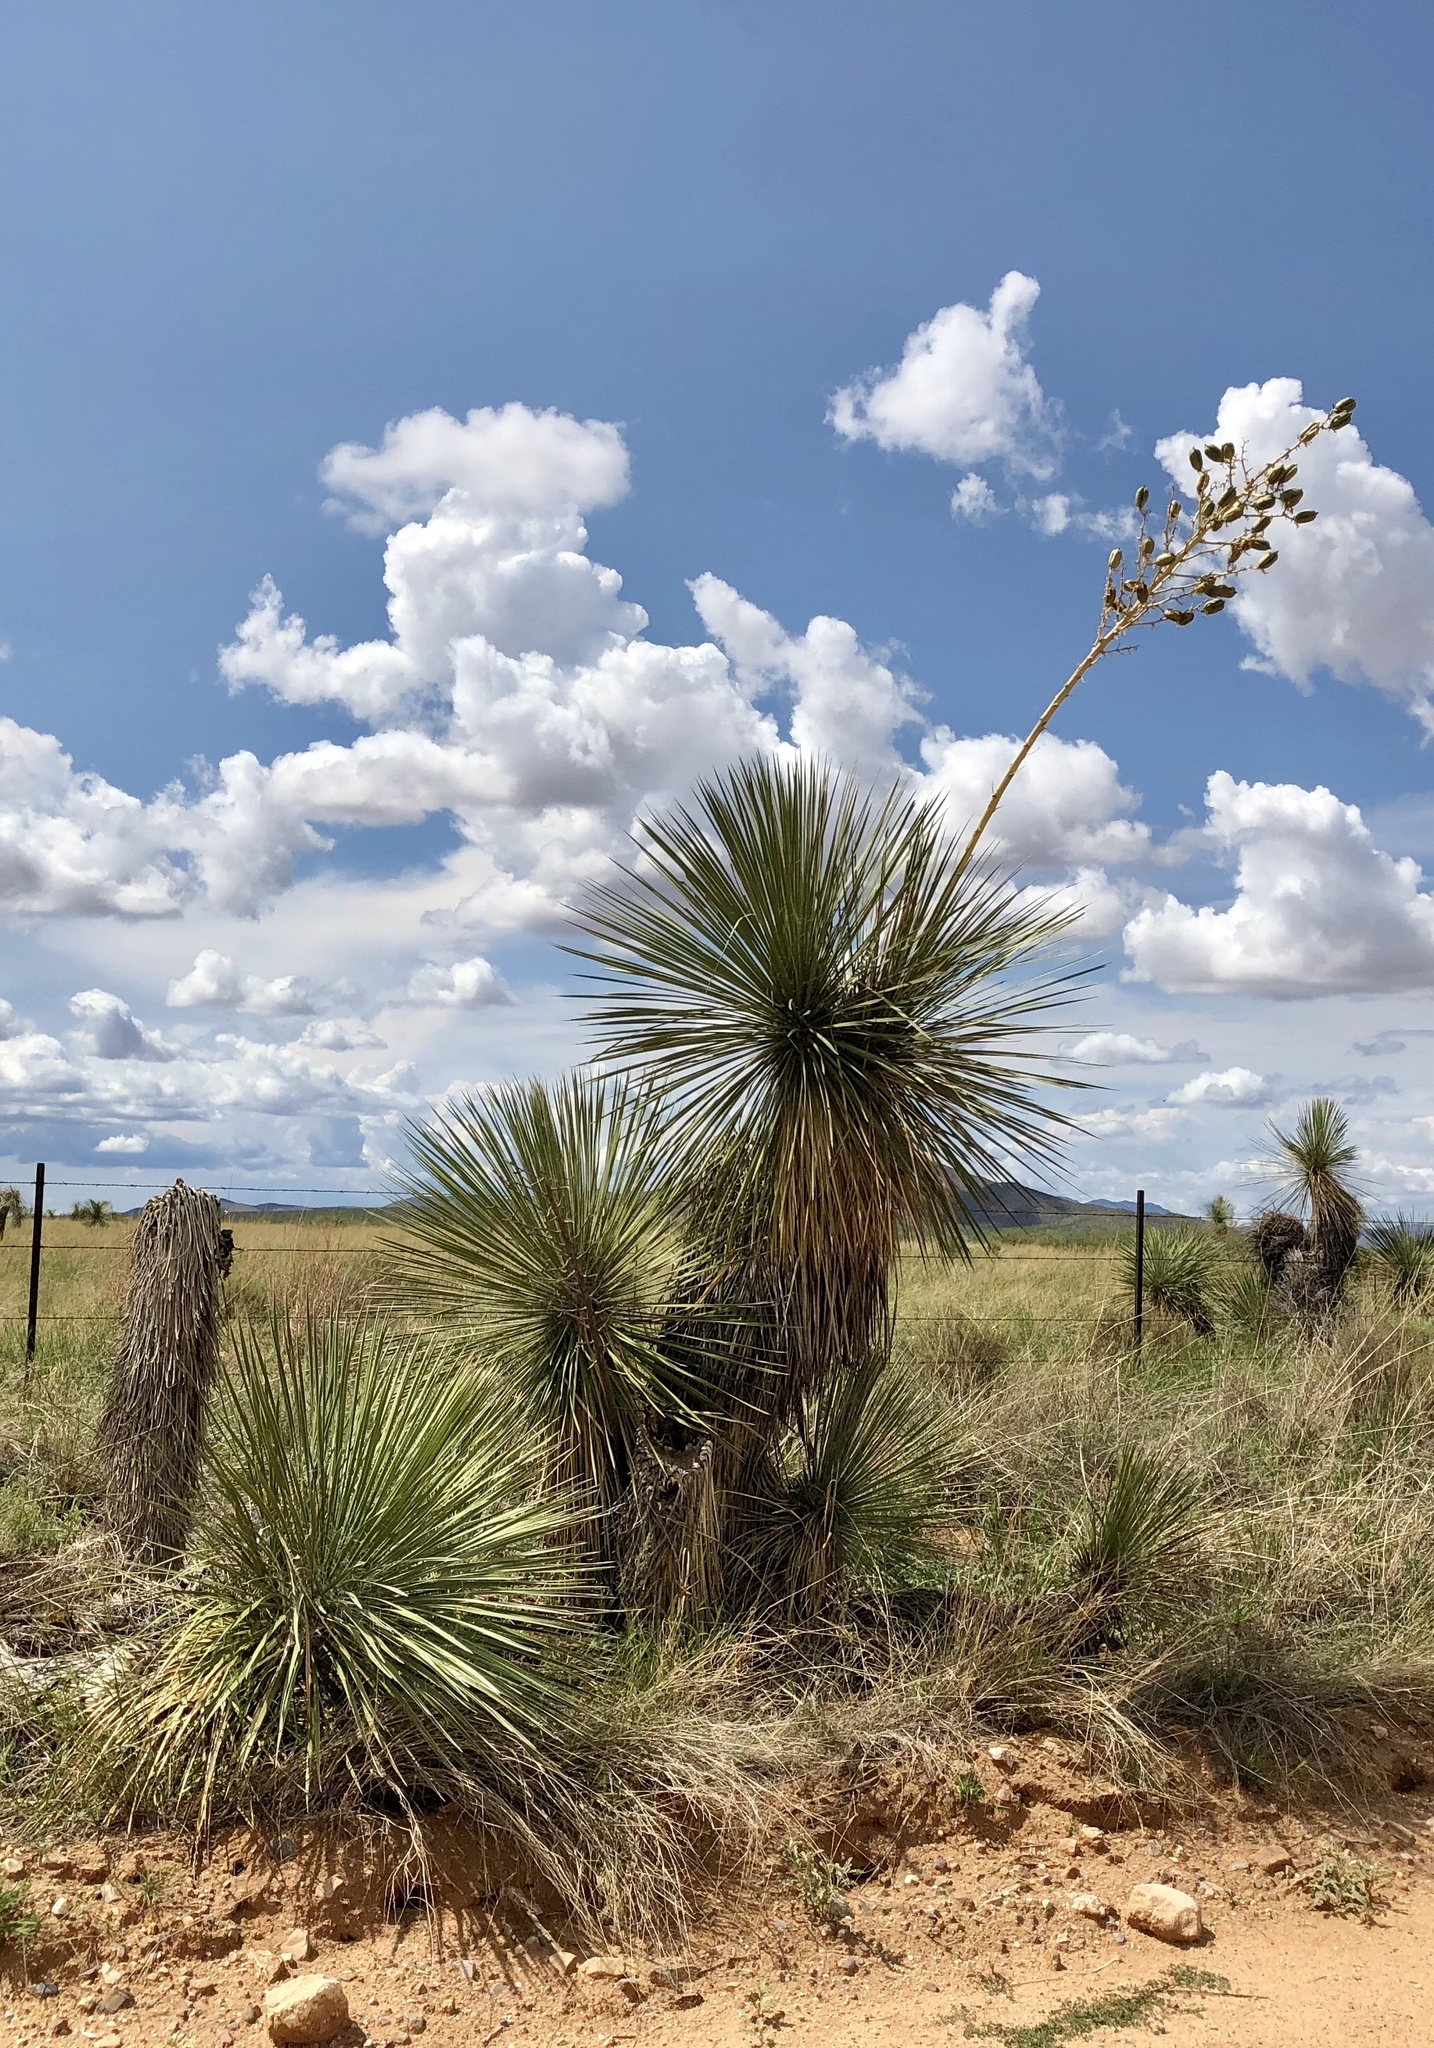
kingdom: Plantae
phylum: Tracheophyta
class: Liliopsida
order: Asparagales
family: Asparagaceae
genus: Yucca
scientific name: Yucca elata
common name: Palmella
